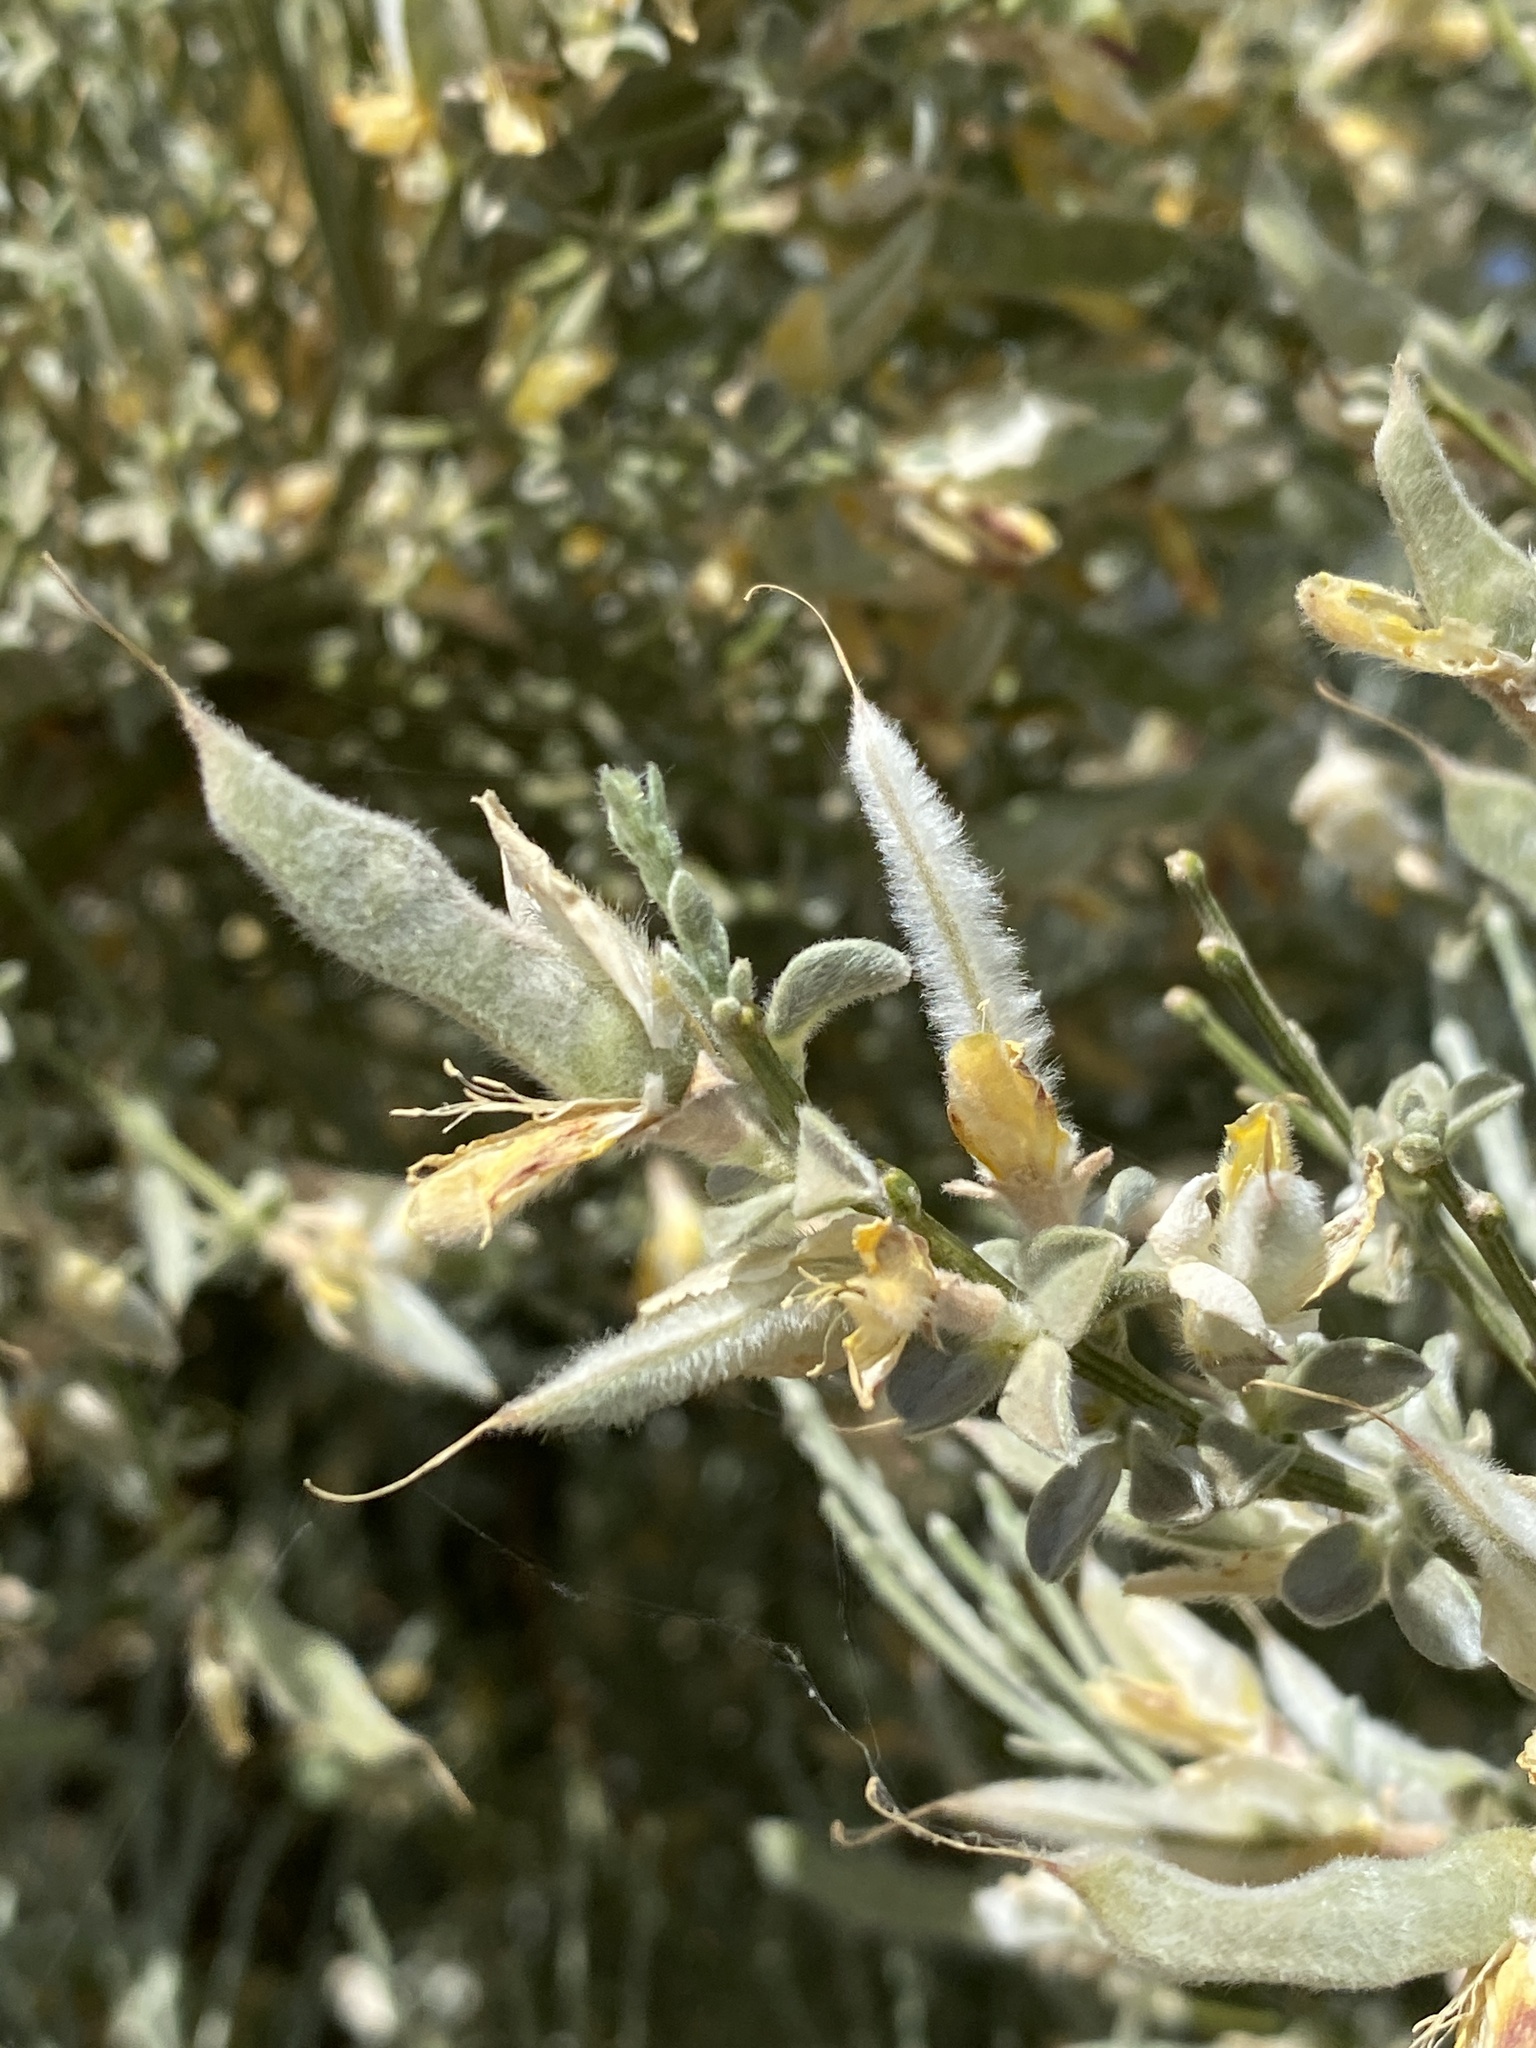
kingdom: Plantae
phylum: Tracheophyta
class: Magnoliopsida
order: Fabales
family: Fabaceae
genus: Genista
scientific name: Genista benehoavensis
